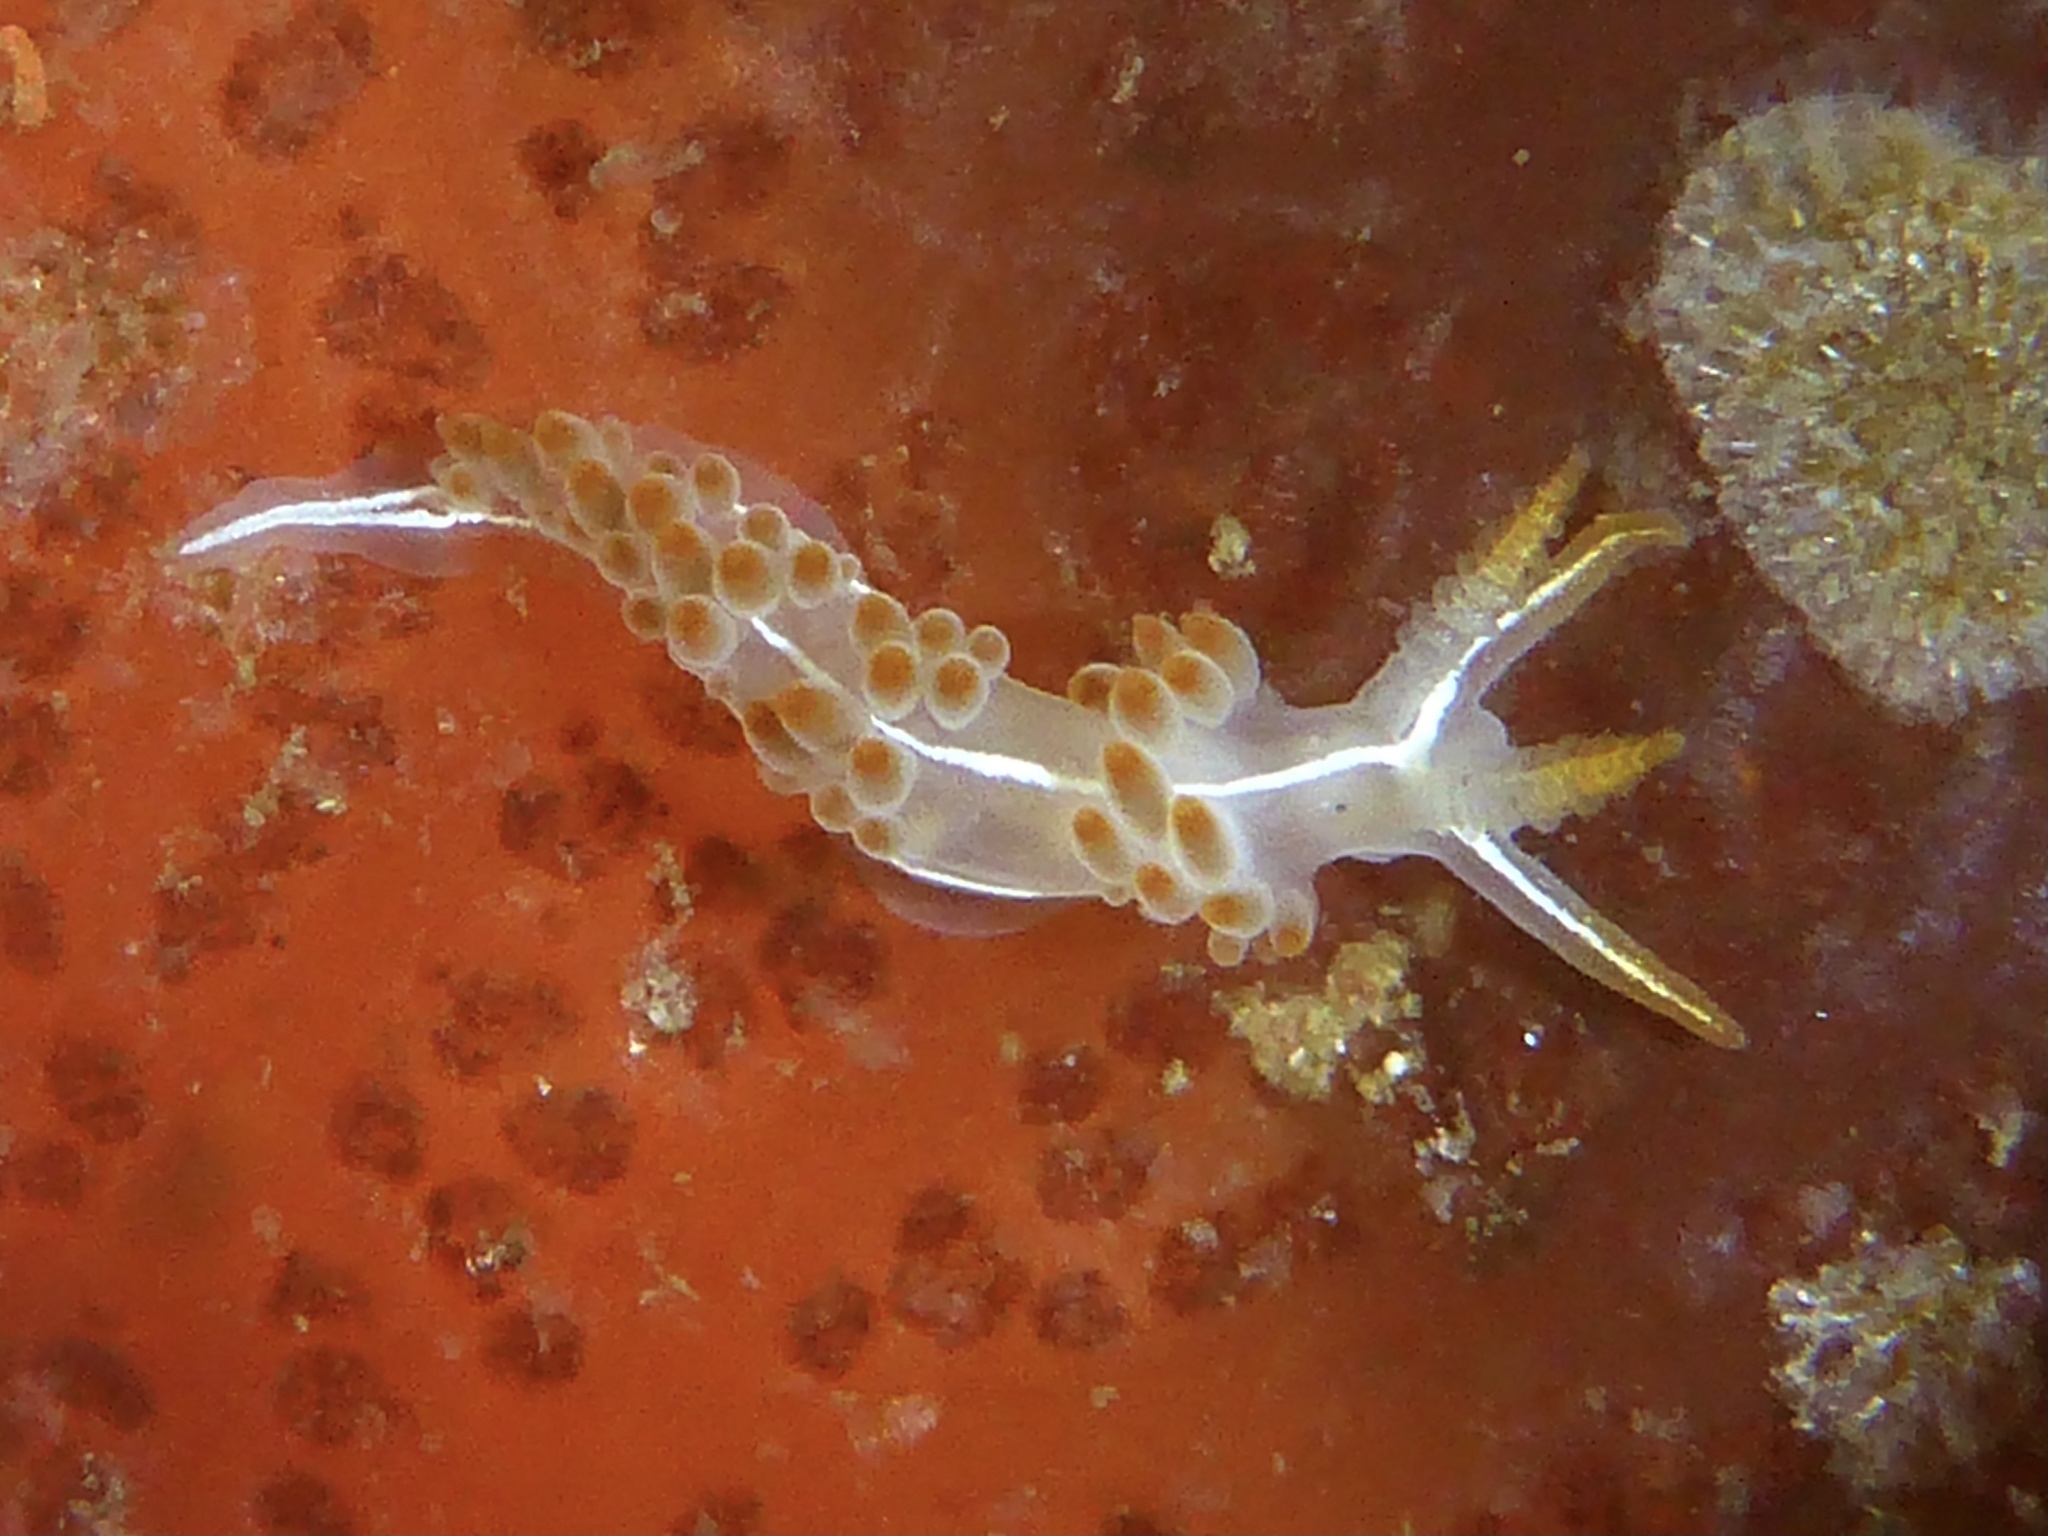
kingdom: Animalia
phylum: Mollusca
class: Gastropoda
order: Nudibranchia
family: Coryphellidae
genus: Coryphella
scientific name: Coryphella trilineata
